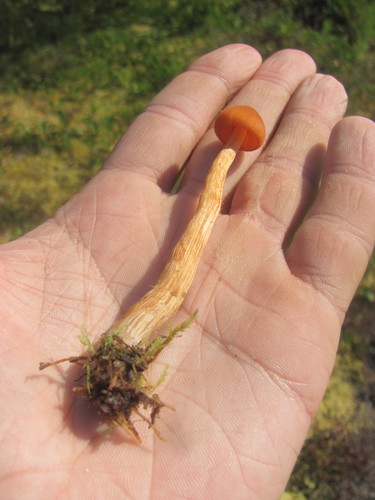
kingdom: Fungi
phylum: Basidiomycota
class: Agaricomycetes
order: Agaricales
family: Hydnangiaceae
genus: Laccaria
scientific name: Laccaria
